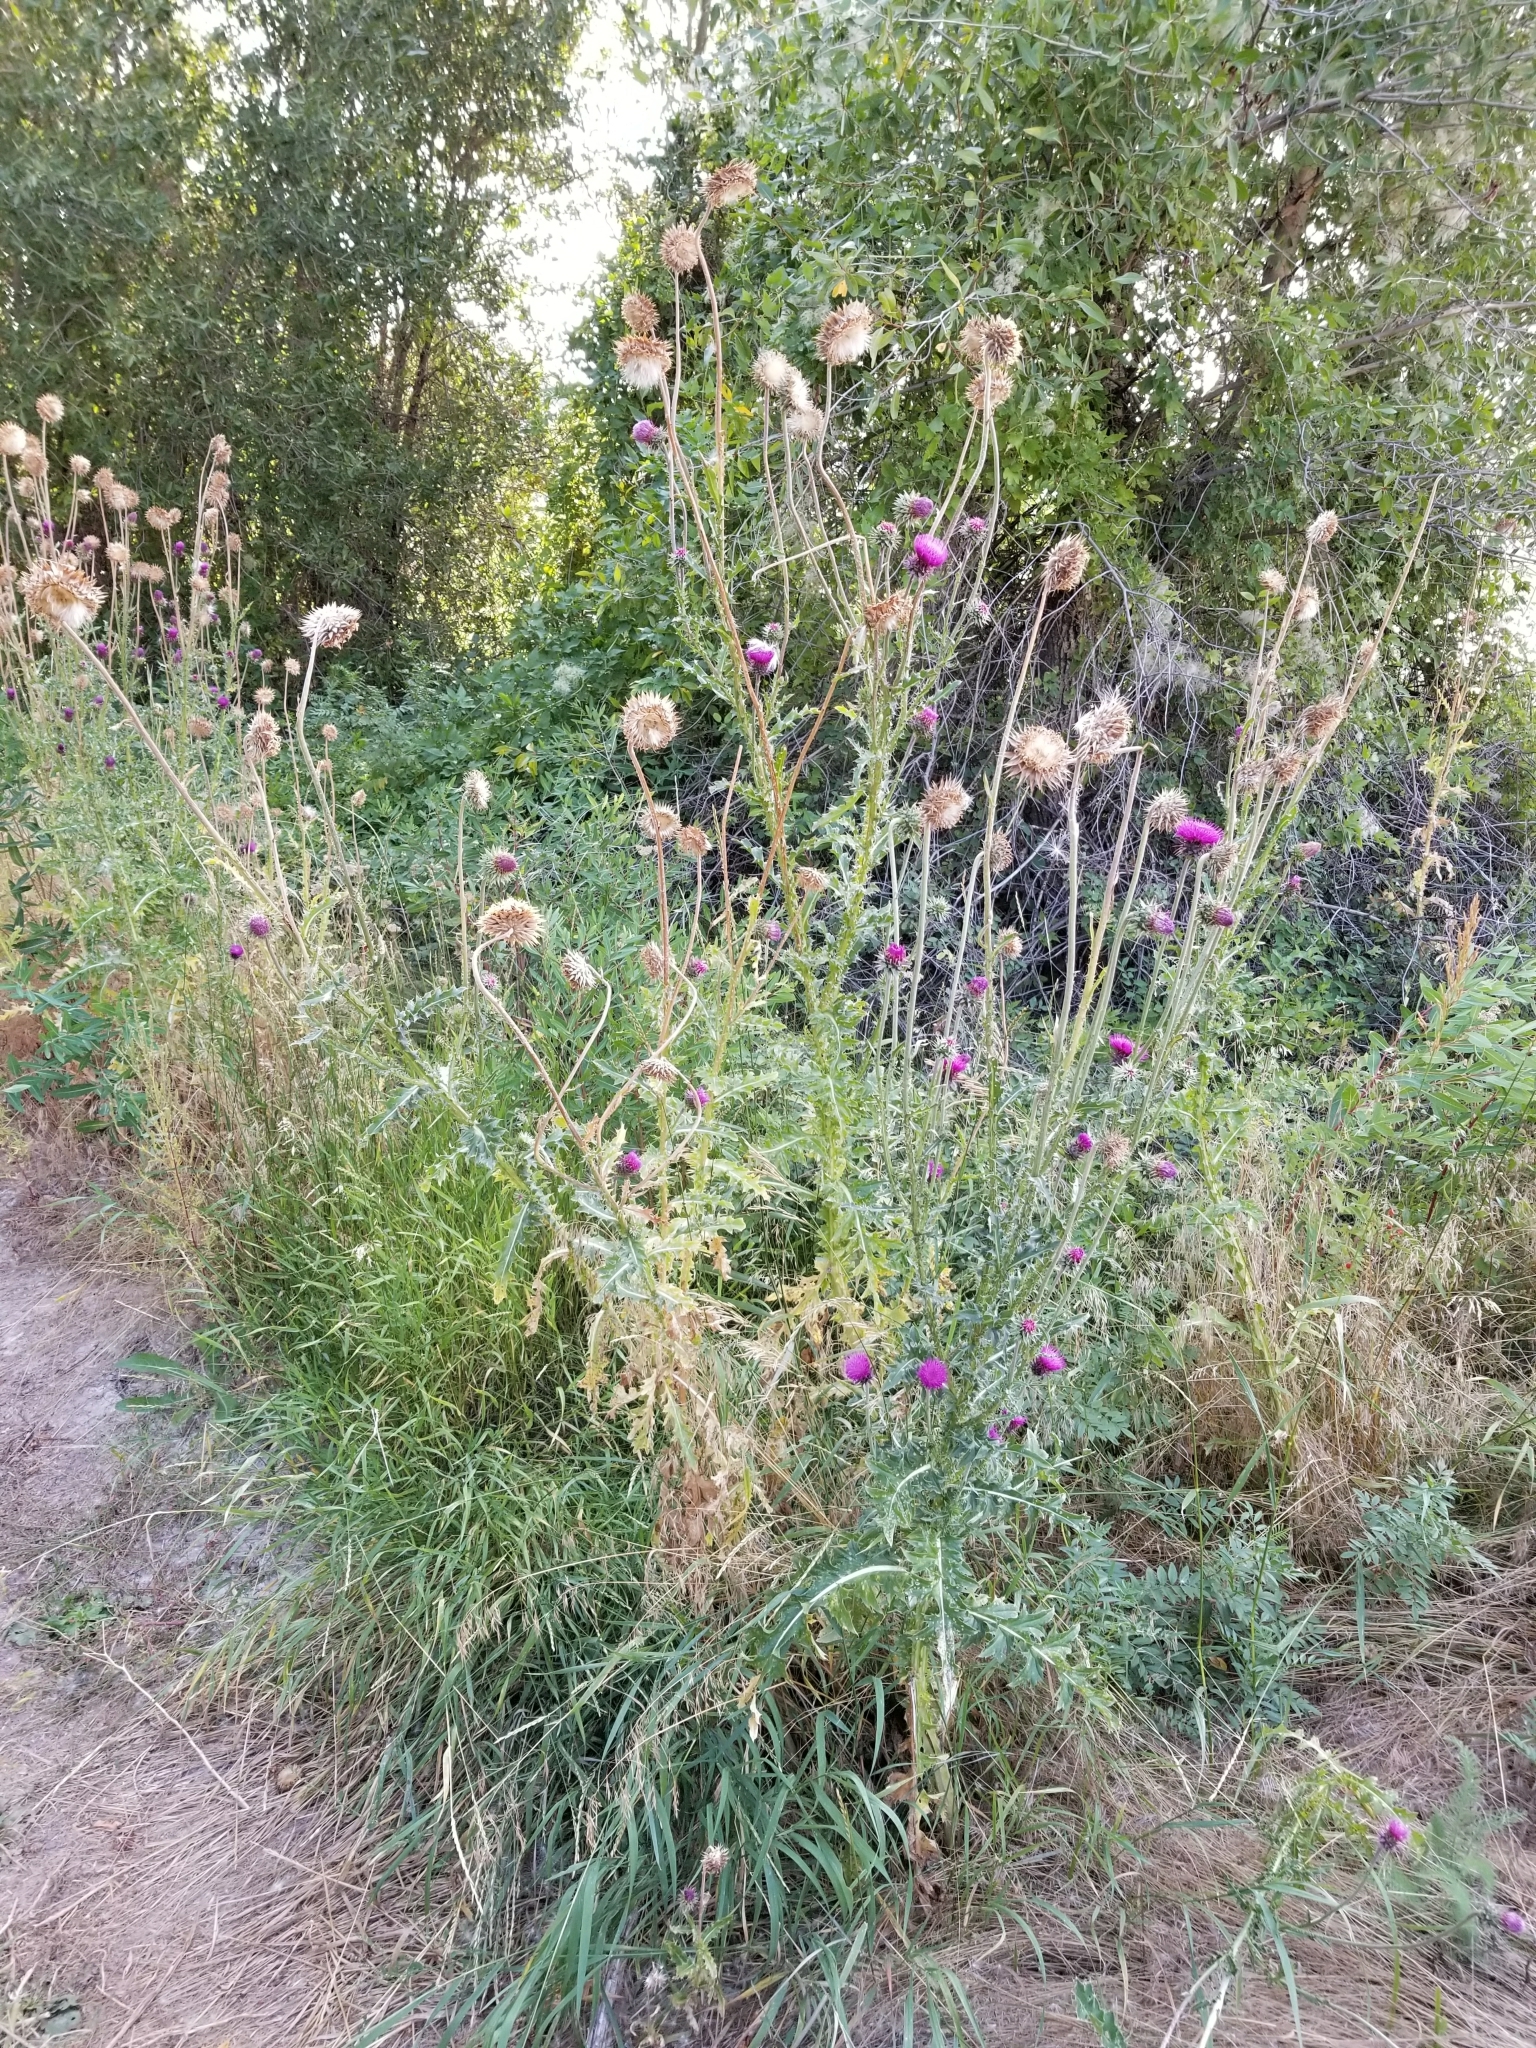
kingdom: Plantae
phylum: Tracheophyta
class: Magnoliopsida
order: Asterales
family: Asteraceae
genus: Carduus
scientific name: Carduus nutans
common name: Musk thistle
